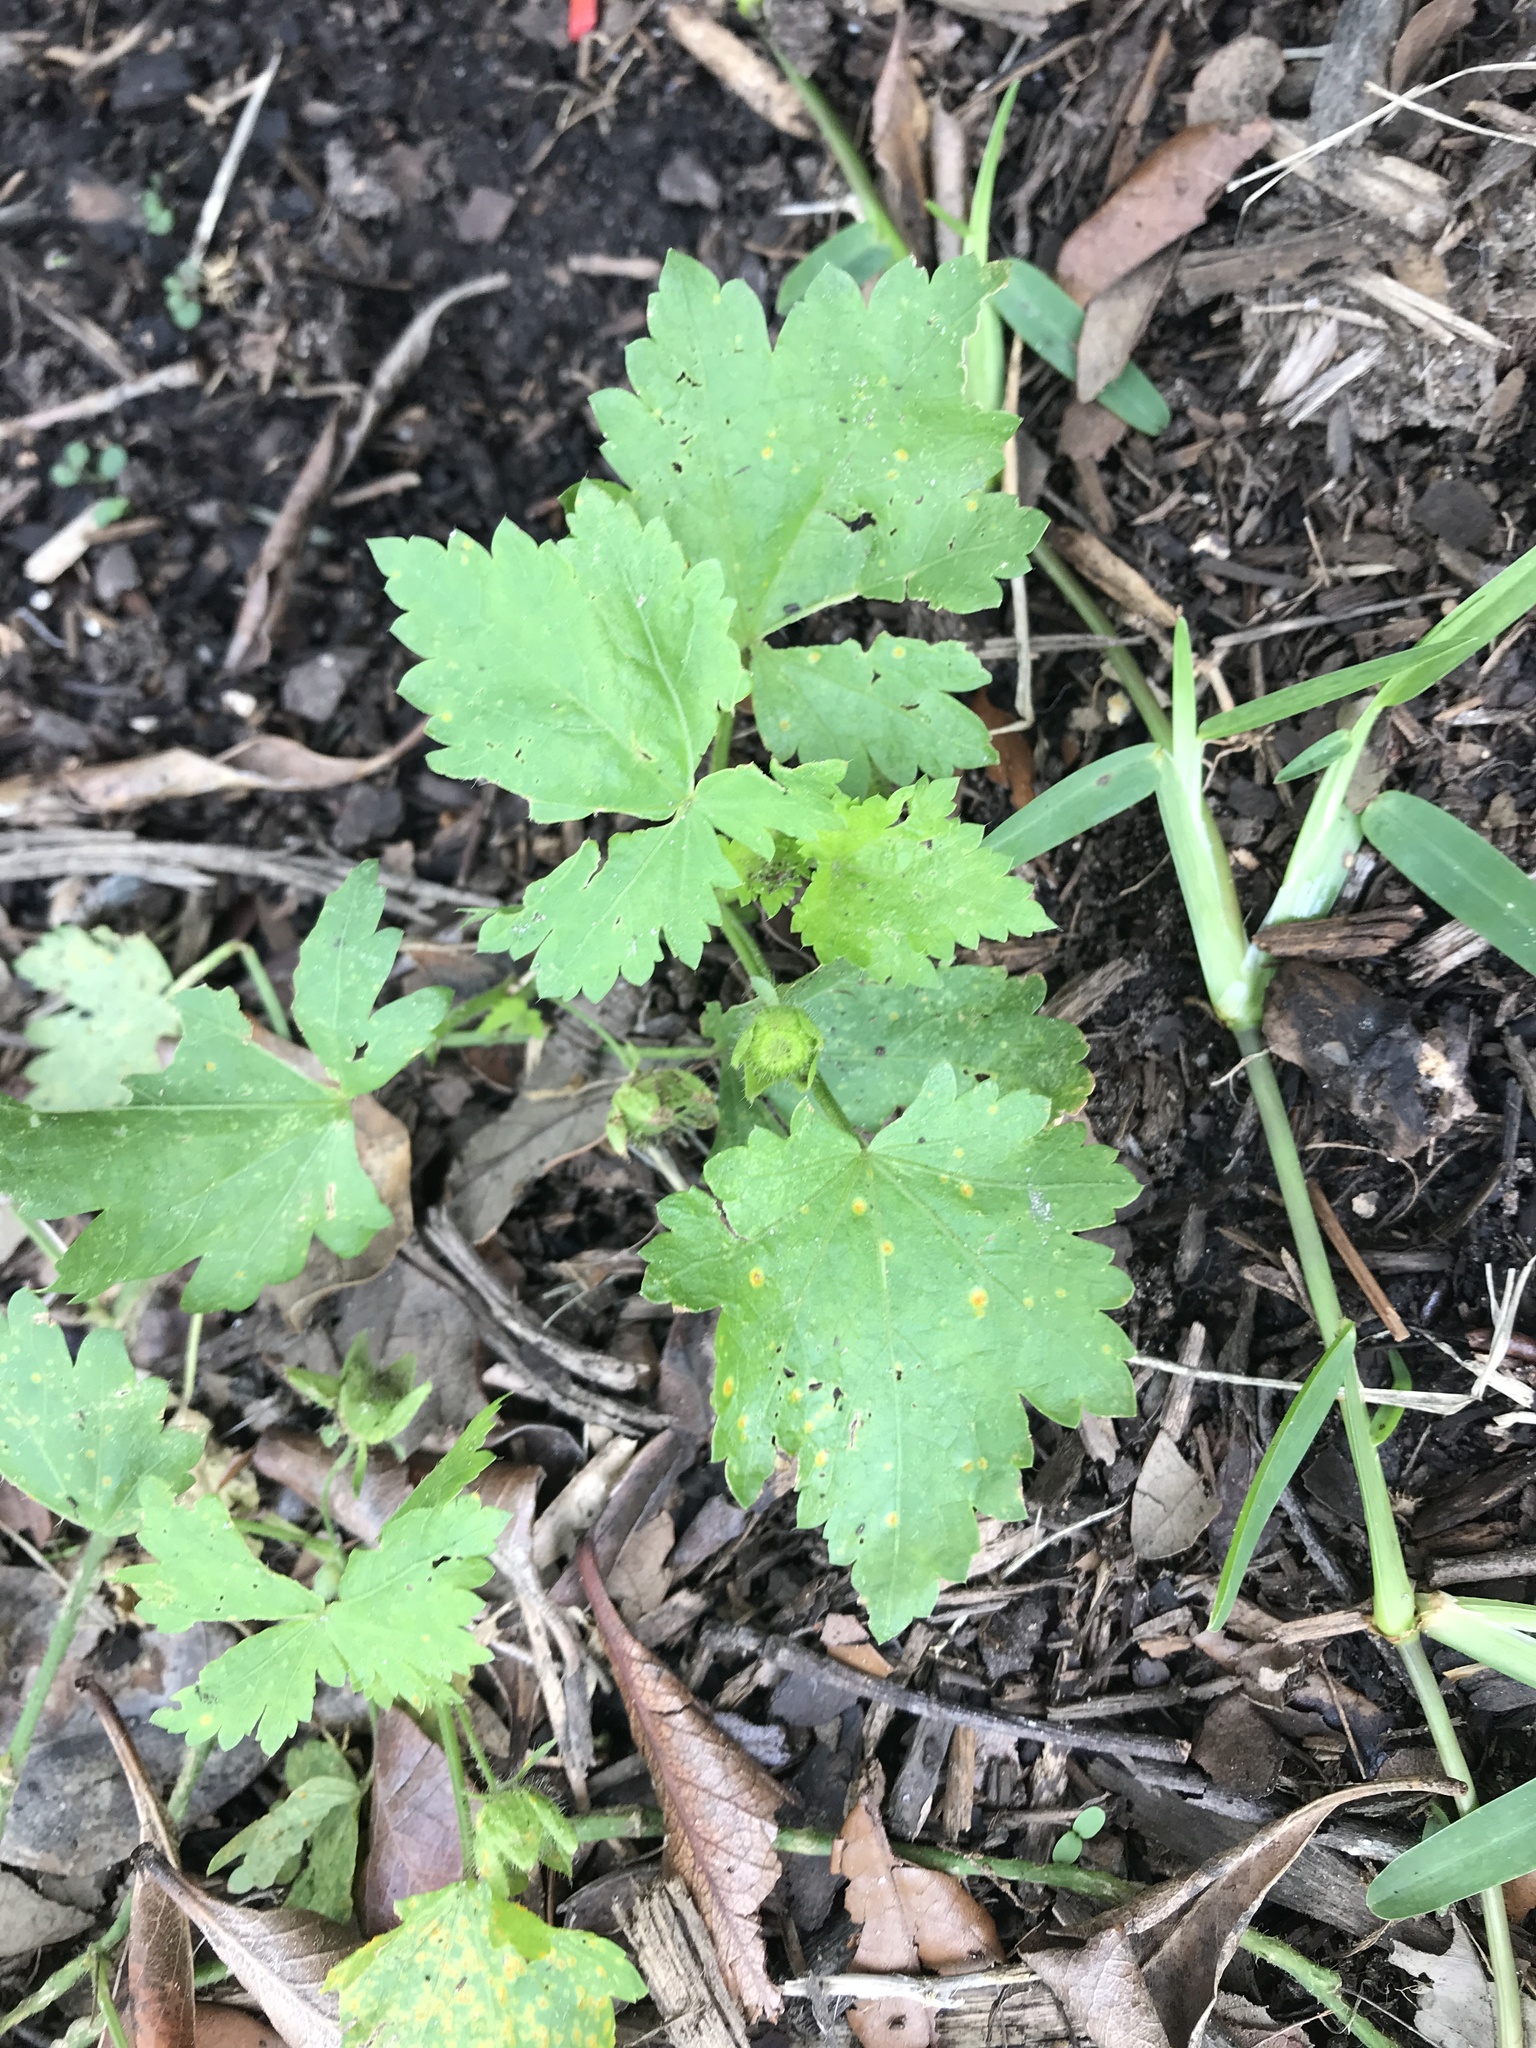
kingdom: Plantae
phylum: Tracheophyta
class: Magnoliopsida
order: Malvales
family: Malvaceae
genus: Modiola
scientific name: Modiola caroliniana
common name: Carolina bristlemallow
